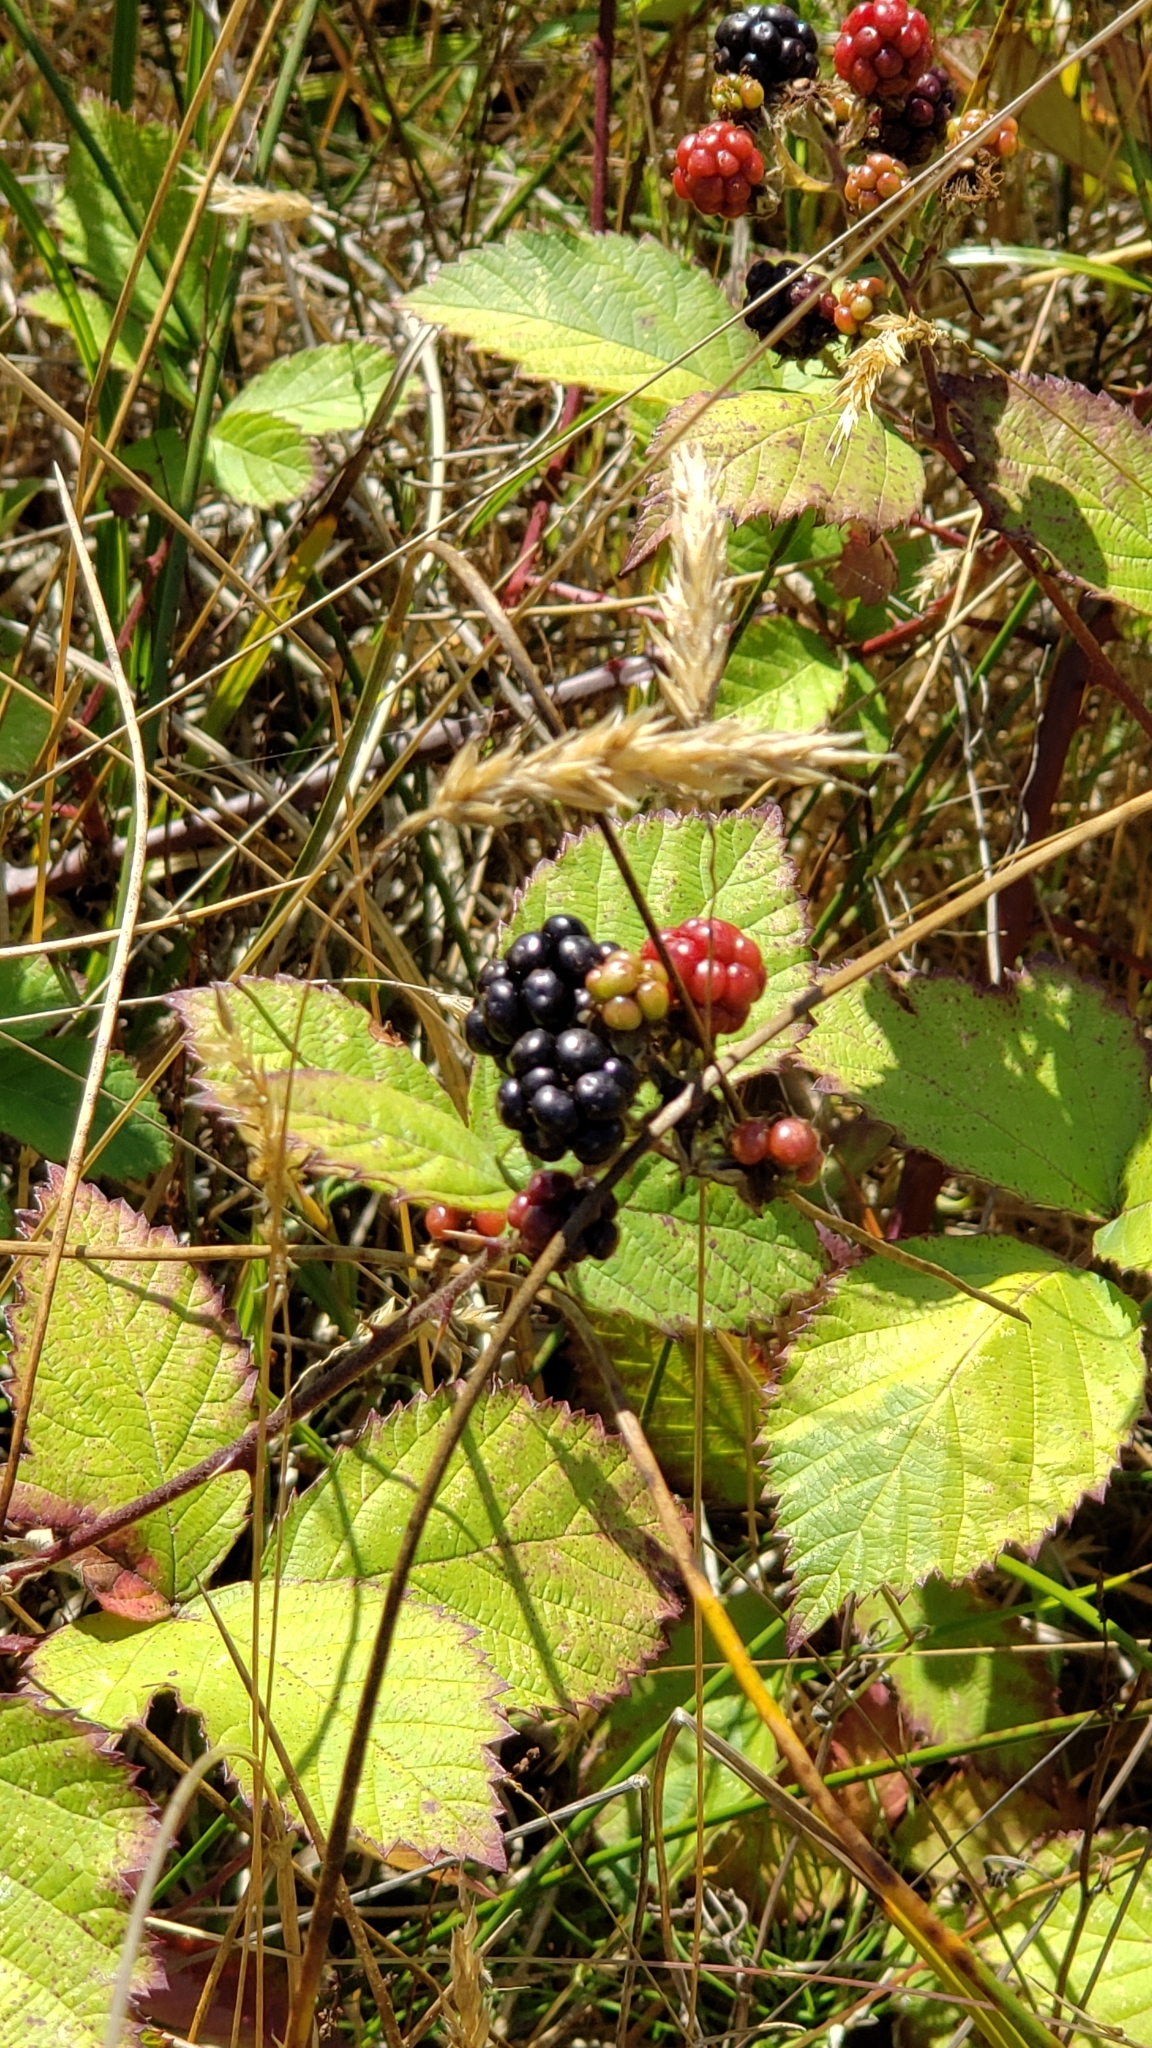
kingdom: Plantae
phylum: Tracheophyta
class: Magnoliopsida
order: Rosales
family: Rosaceae
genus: Rubus
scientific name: Rubus armeniacus
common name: Himalayan blackberry
